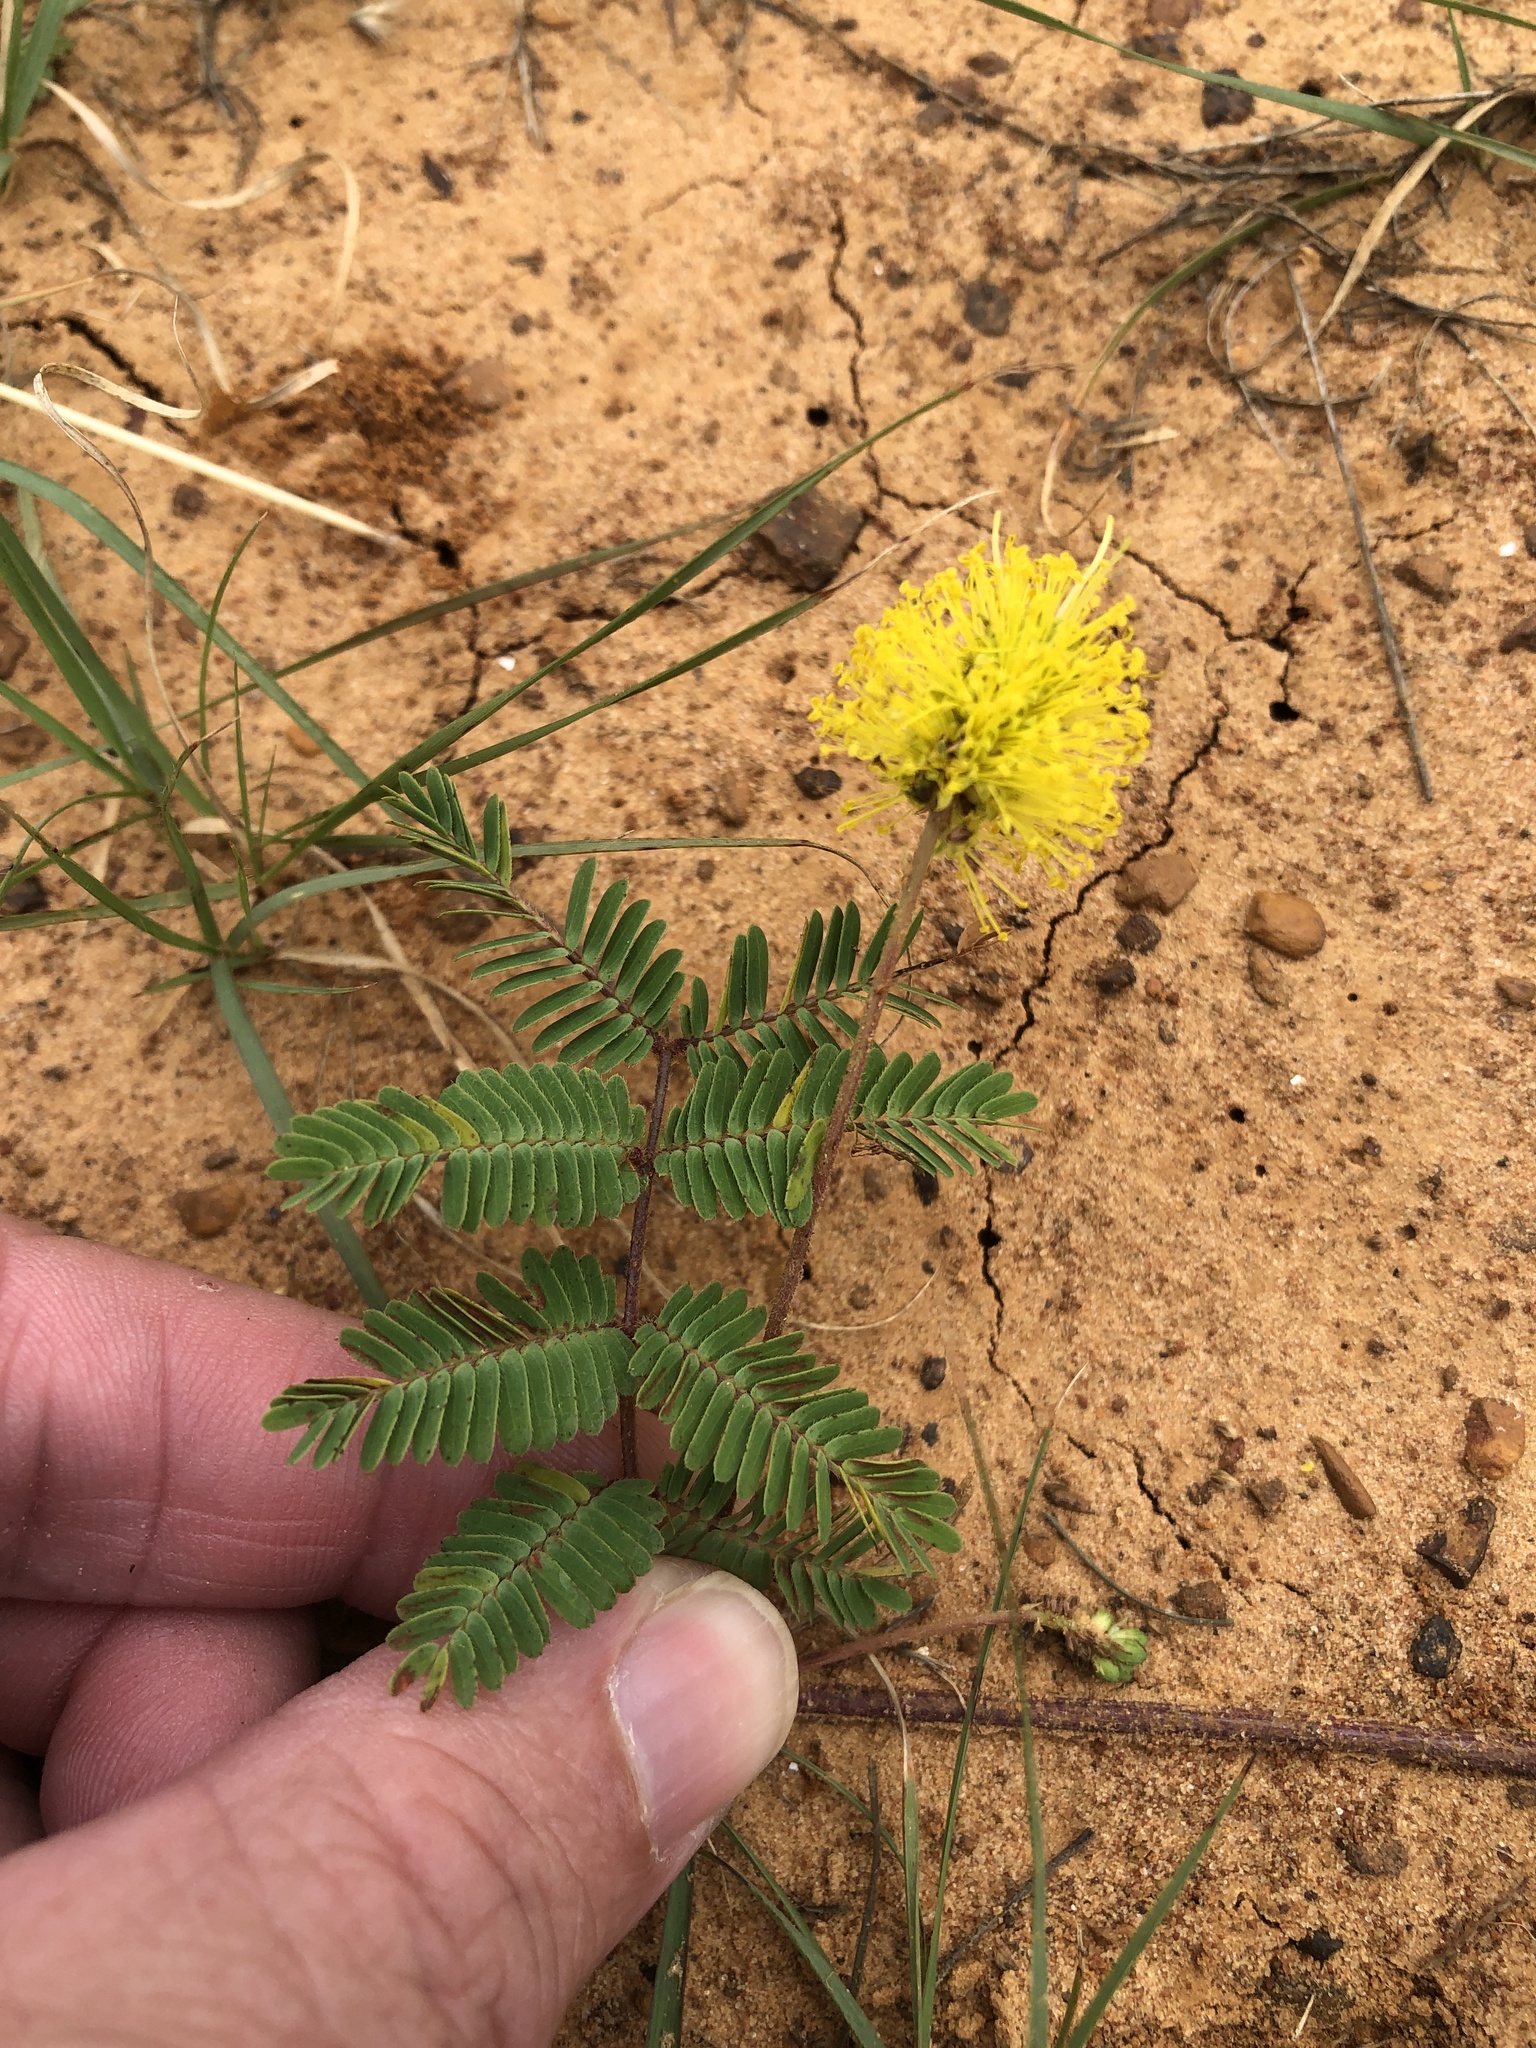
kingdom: Plantae
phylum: Tracheophyta
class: Magnoliopsida
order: Fabales
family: Fabaceae
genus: Neptunia
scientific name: Neptunia lutea
